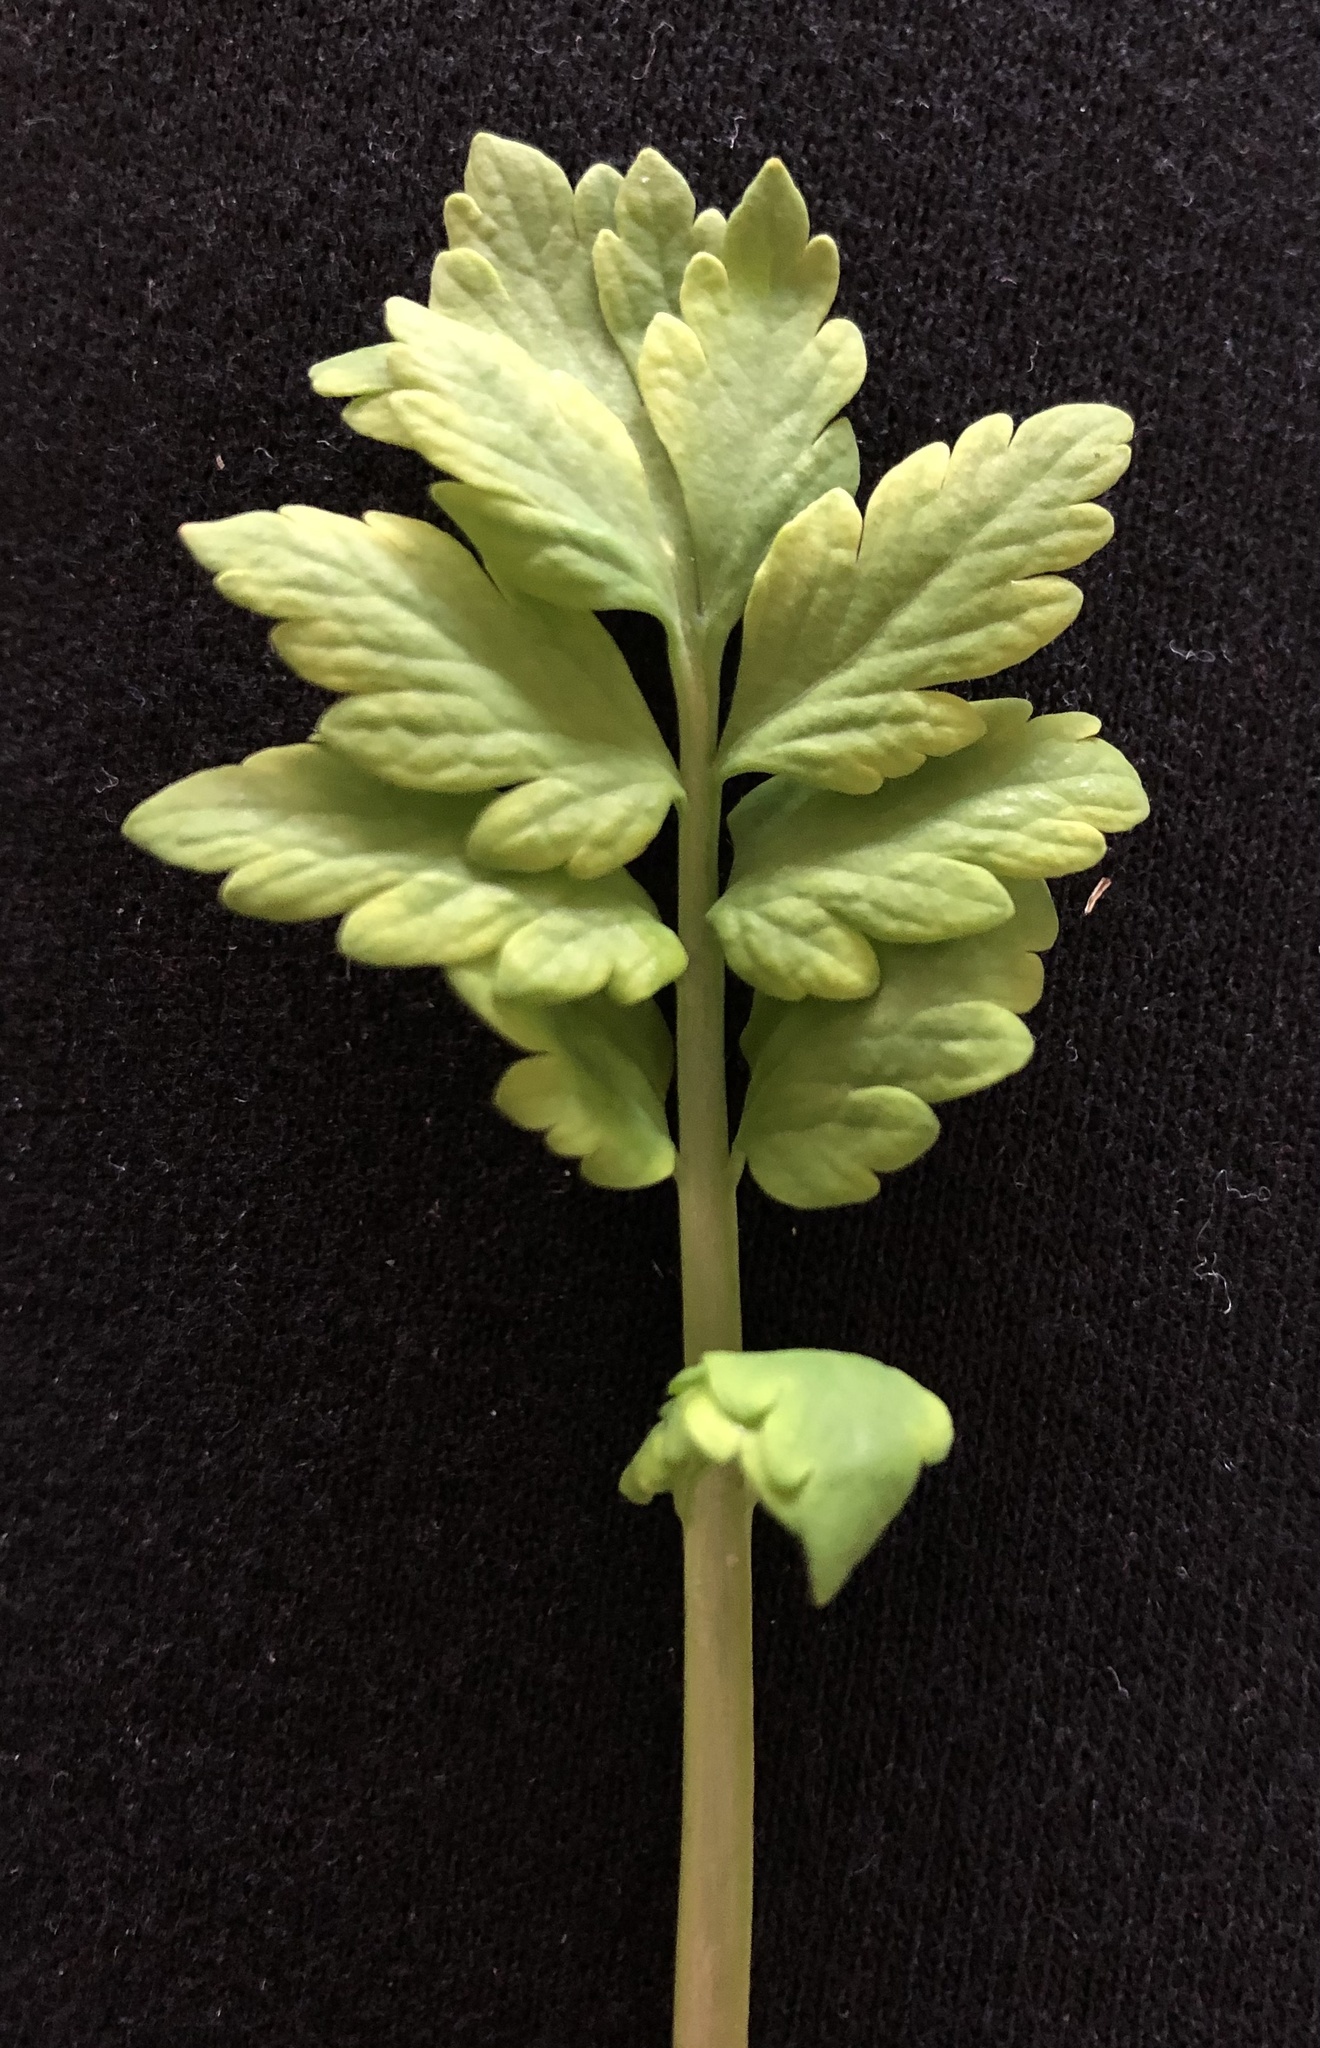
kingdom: Plantae
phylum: Tracheophyta
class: Magnoliopsida
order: Ranunculales
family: Papaveraceae
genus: Papaver
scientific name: Papaver cambricum
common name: Poppy
